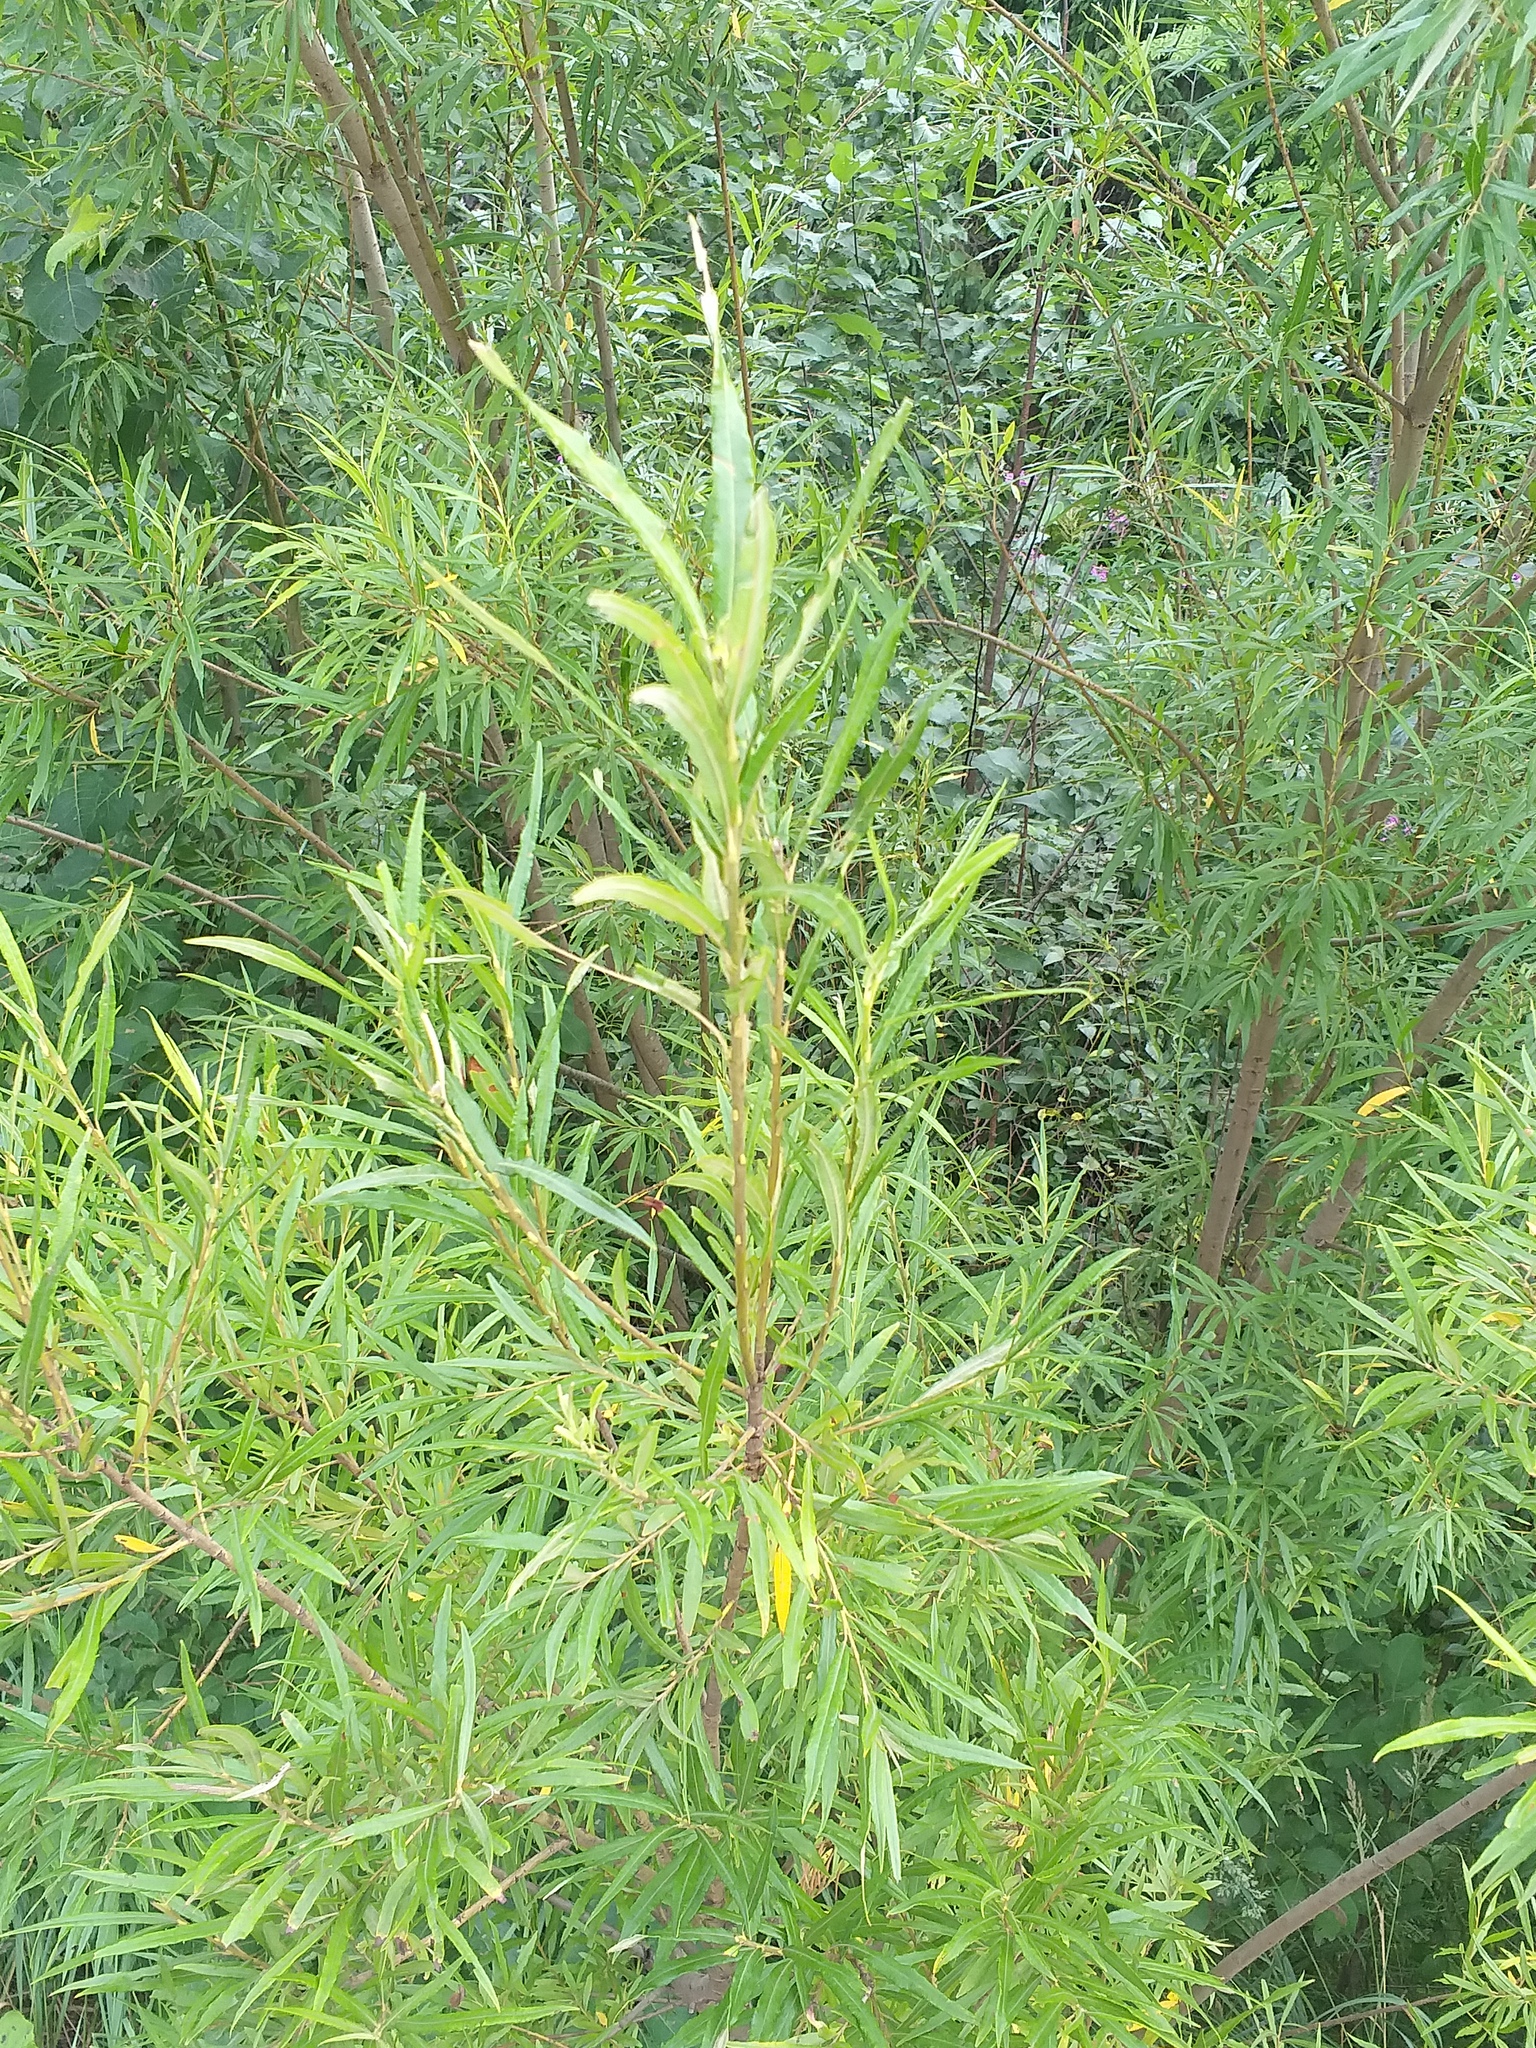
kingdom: Plantae
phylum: Tracheophyta
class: Magnoliopsida
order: Malpighiales
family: Salicaceae
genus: Salix
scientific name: Salix viminalis
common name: Osier
